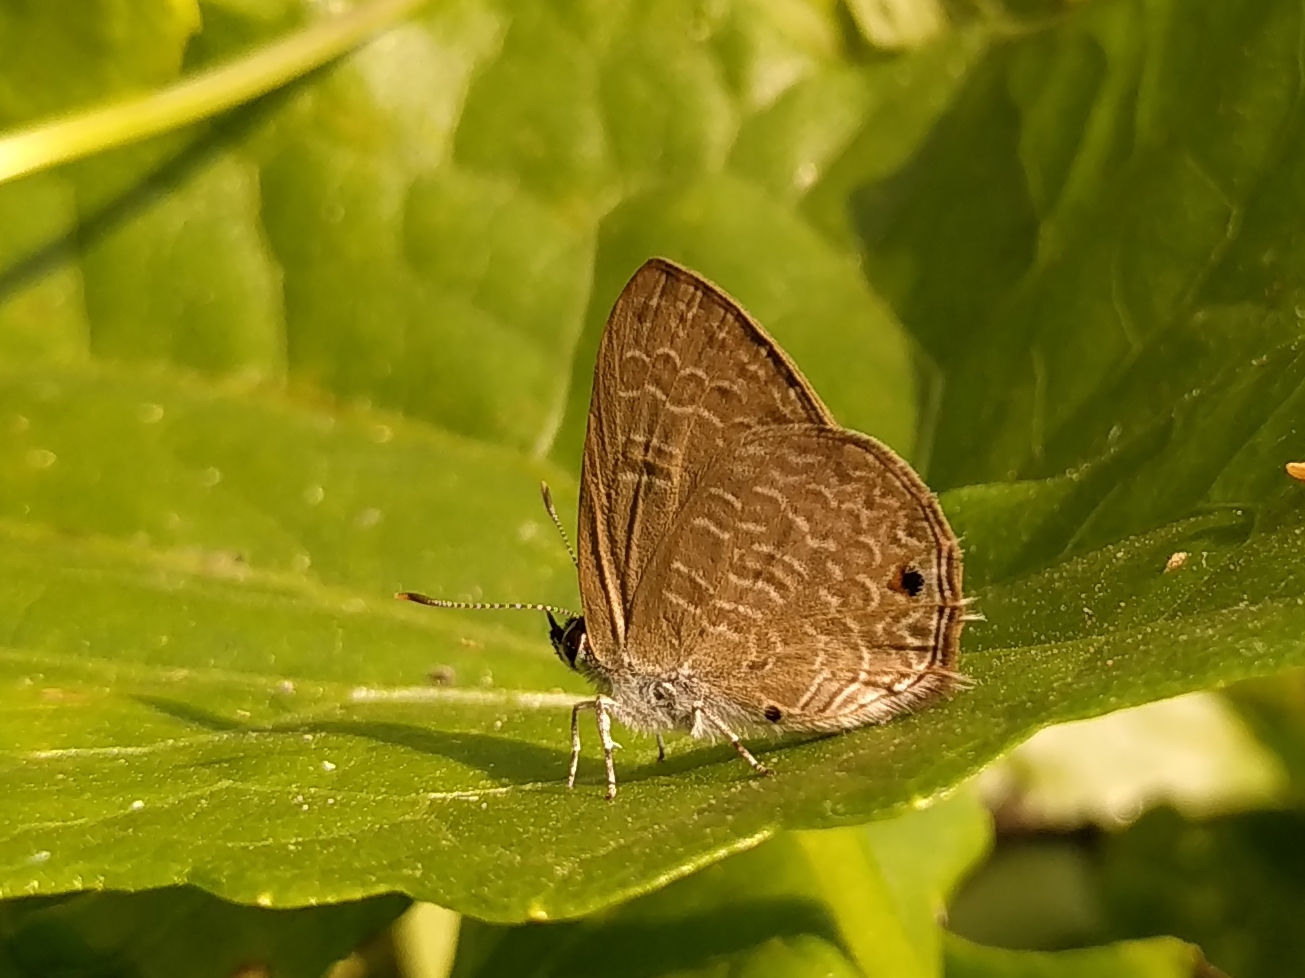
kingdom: Animalia
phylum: Arthropoda
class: Insecta
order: Lepidoptera
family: Lycaenidae
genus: Anthene
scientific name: Anthene emolus
